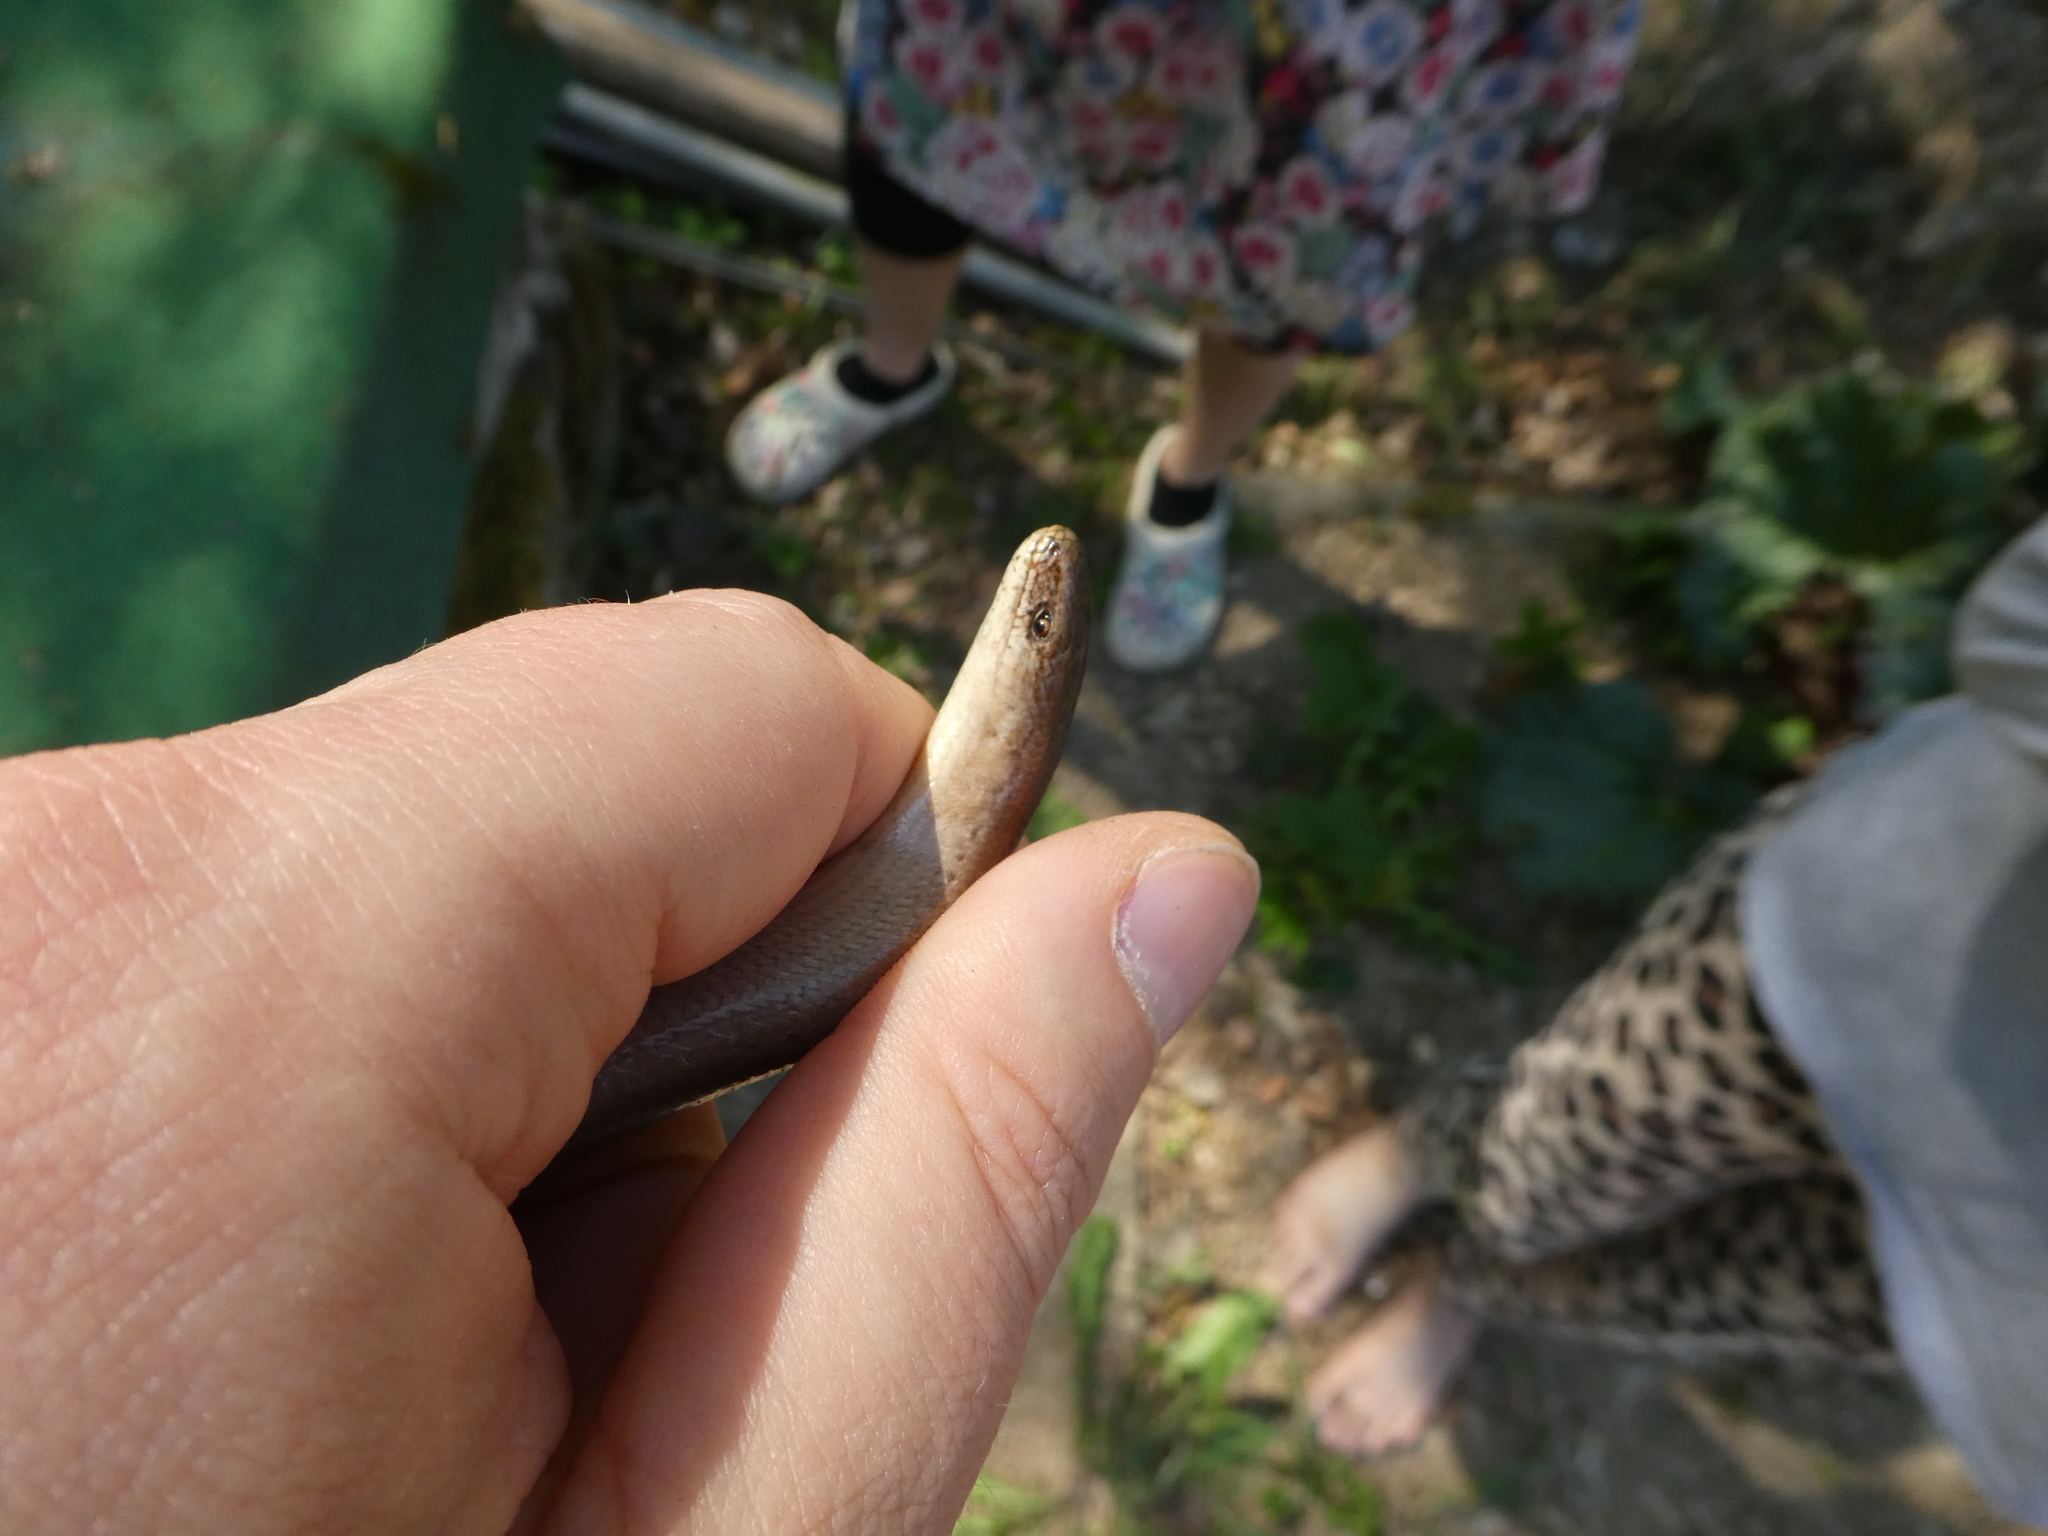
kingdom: Animalia
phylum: Chordata
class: Squamata
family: Anguidae
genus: Anguis
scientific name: Anguis fragilis
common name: Slow worm
